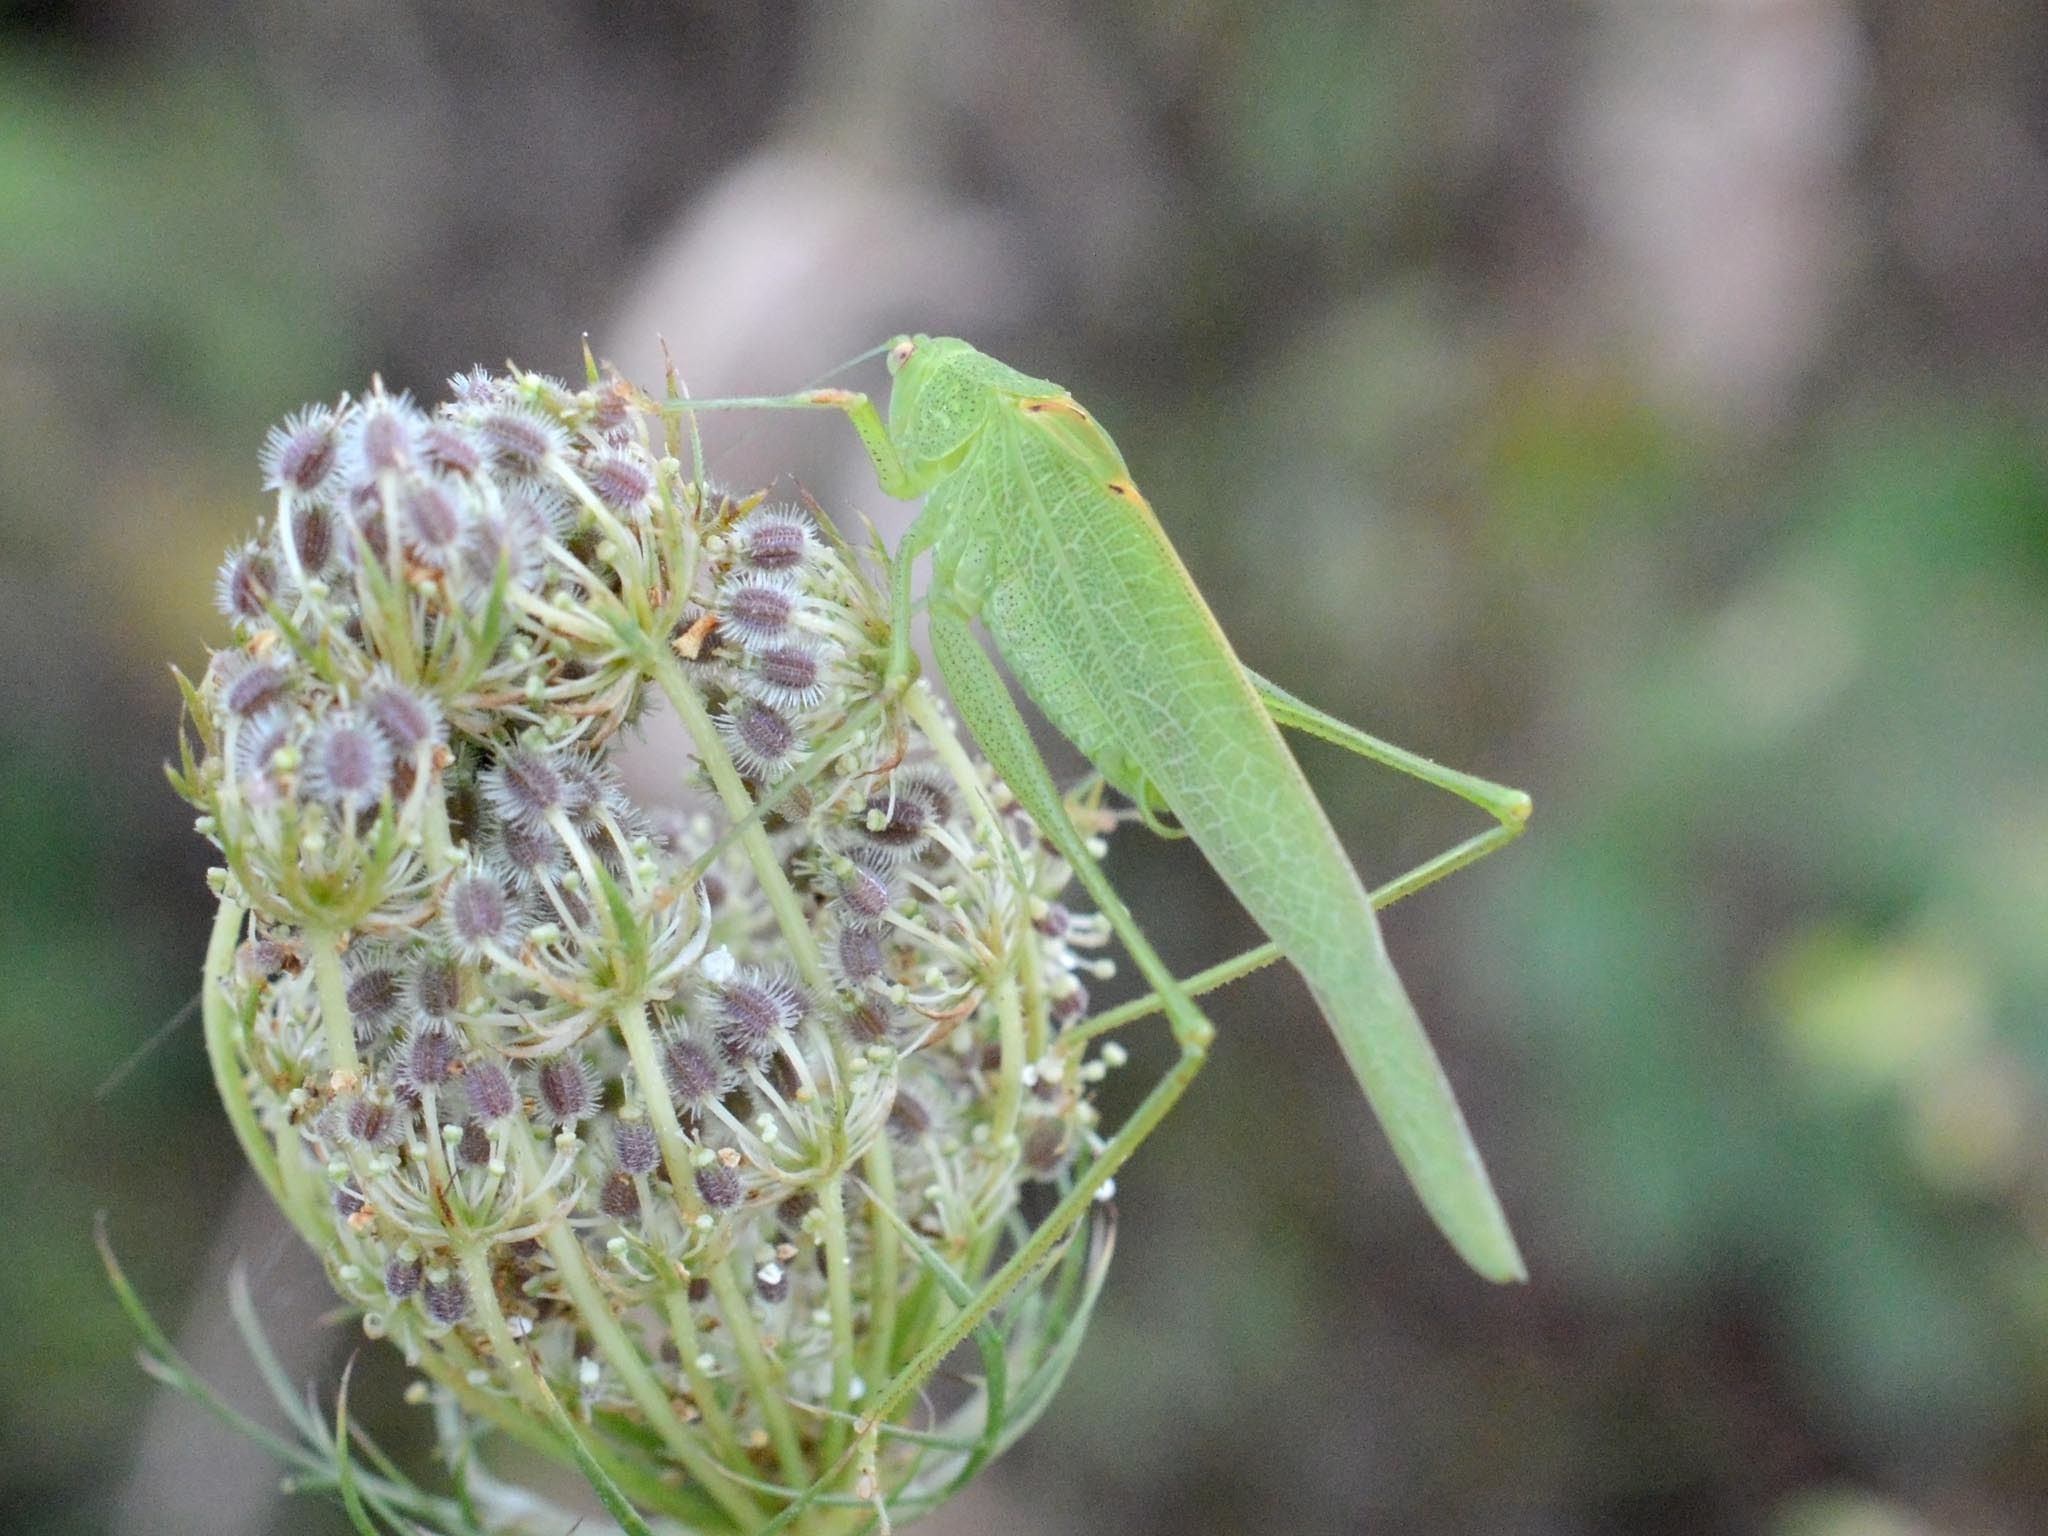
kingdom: Animalia
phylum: Arthropoda
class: Insecta
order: Orthoptera
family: Tettigoniidae
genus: Phaneroptera
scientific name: Phaneroptera nana
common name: Southern sickle bush-cricket
